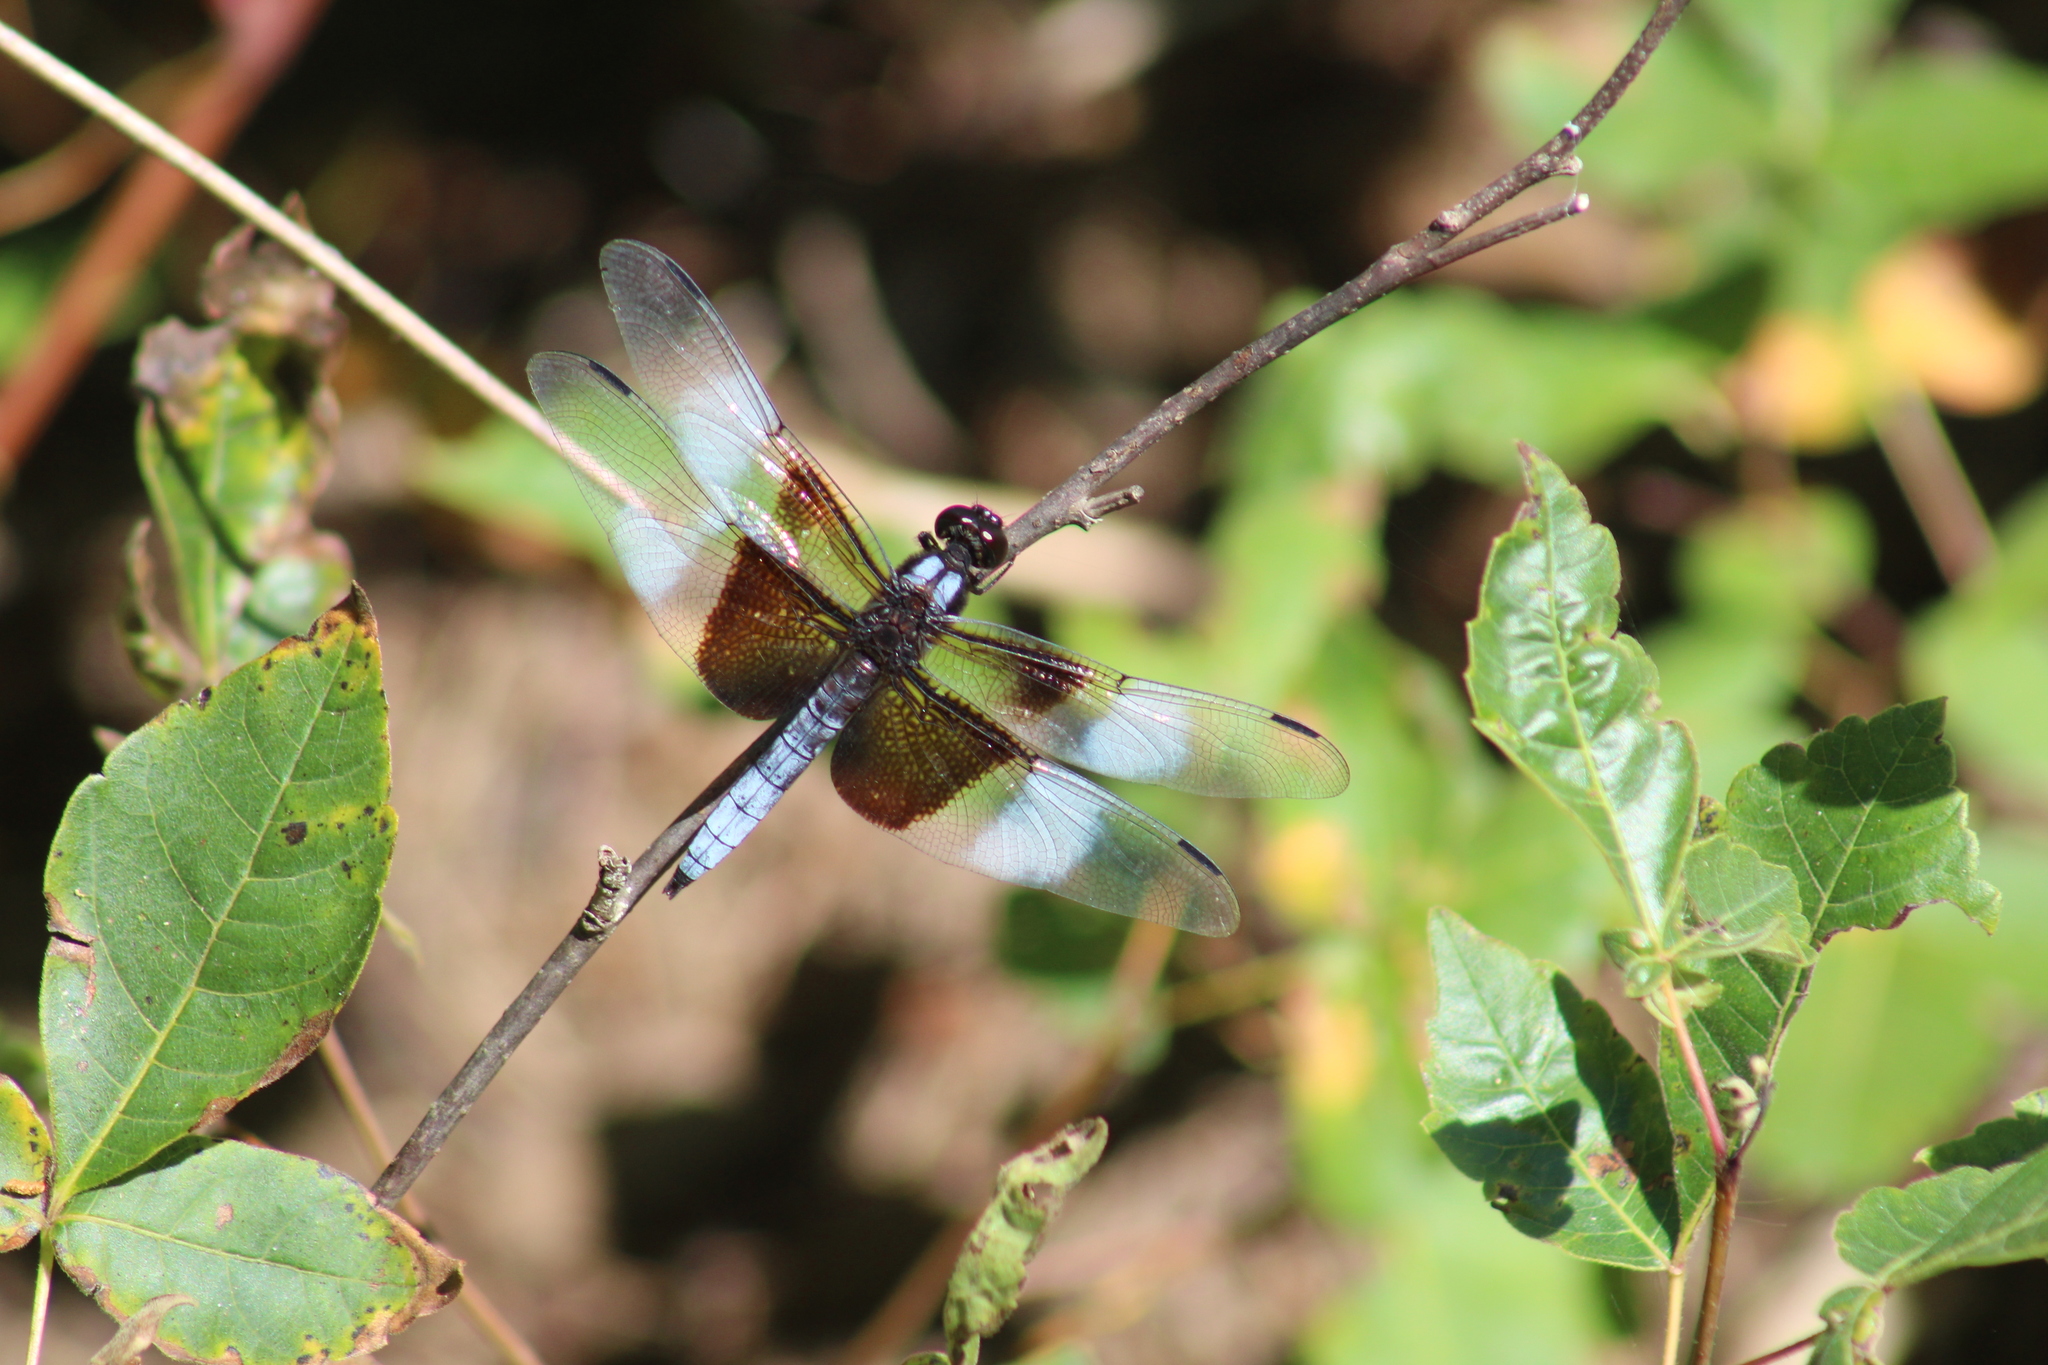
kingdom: Animalia
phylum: Arthropoda
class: Insecta
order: Odonata
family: Libellulidae
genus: Libellula
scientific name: Libellula luctuosa
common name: Widow skimmer
